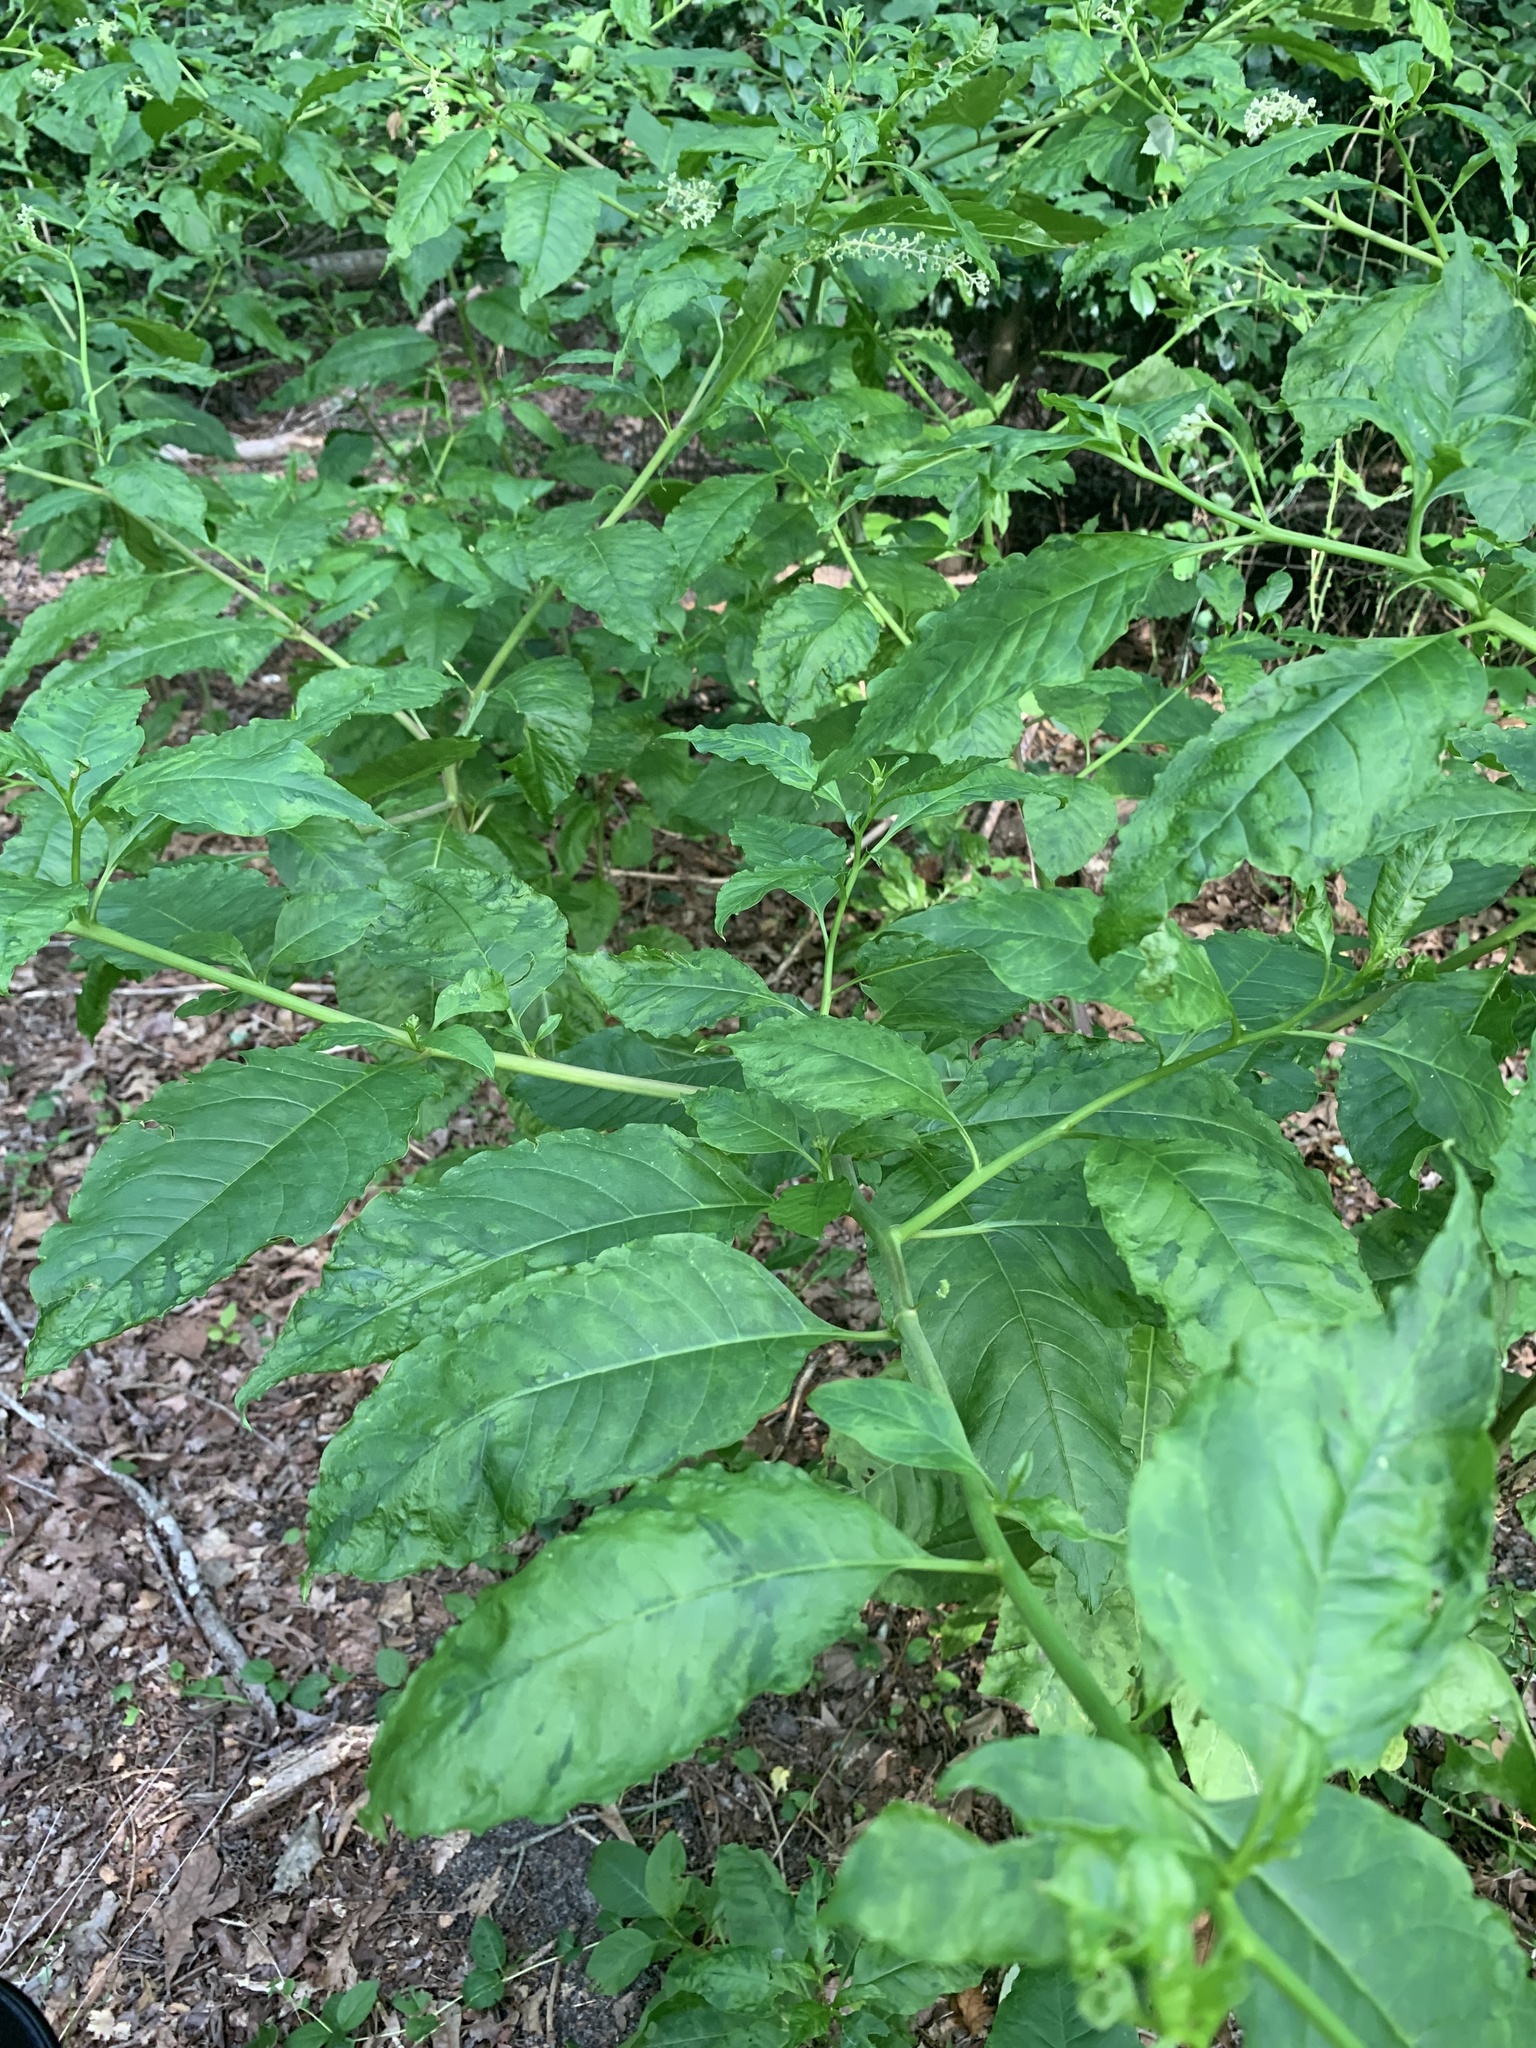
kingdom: Plantae
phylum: Tracheophyta
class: Magnoliopsida
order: Caryophyllales
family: Phytolaccaceae
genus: Phytolacca
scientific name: Phytolacca americana
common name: American pokeweed
